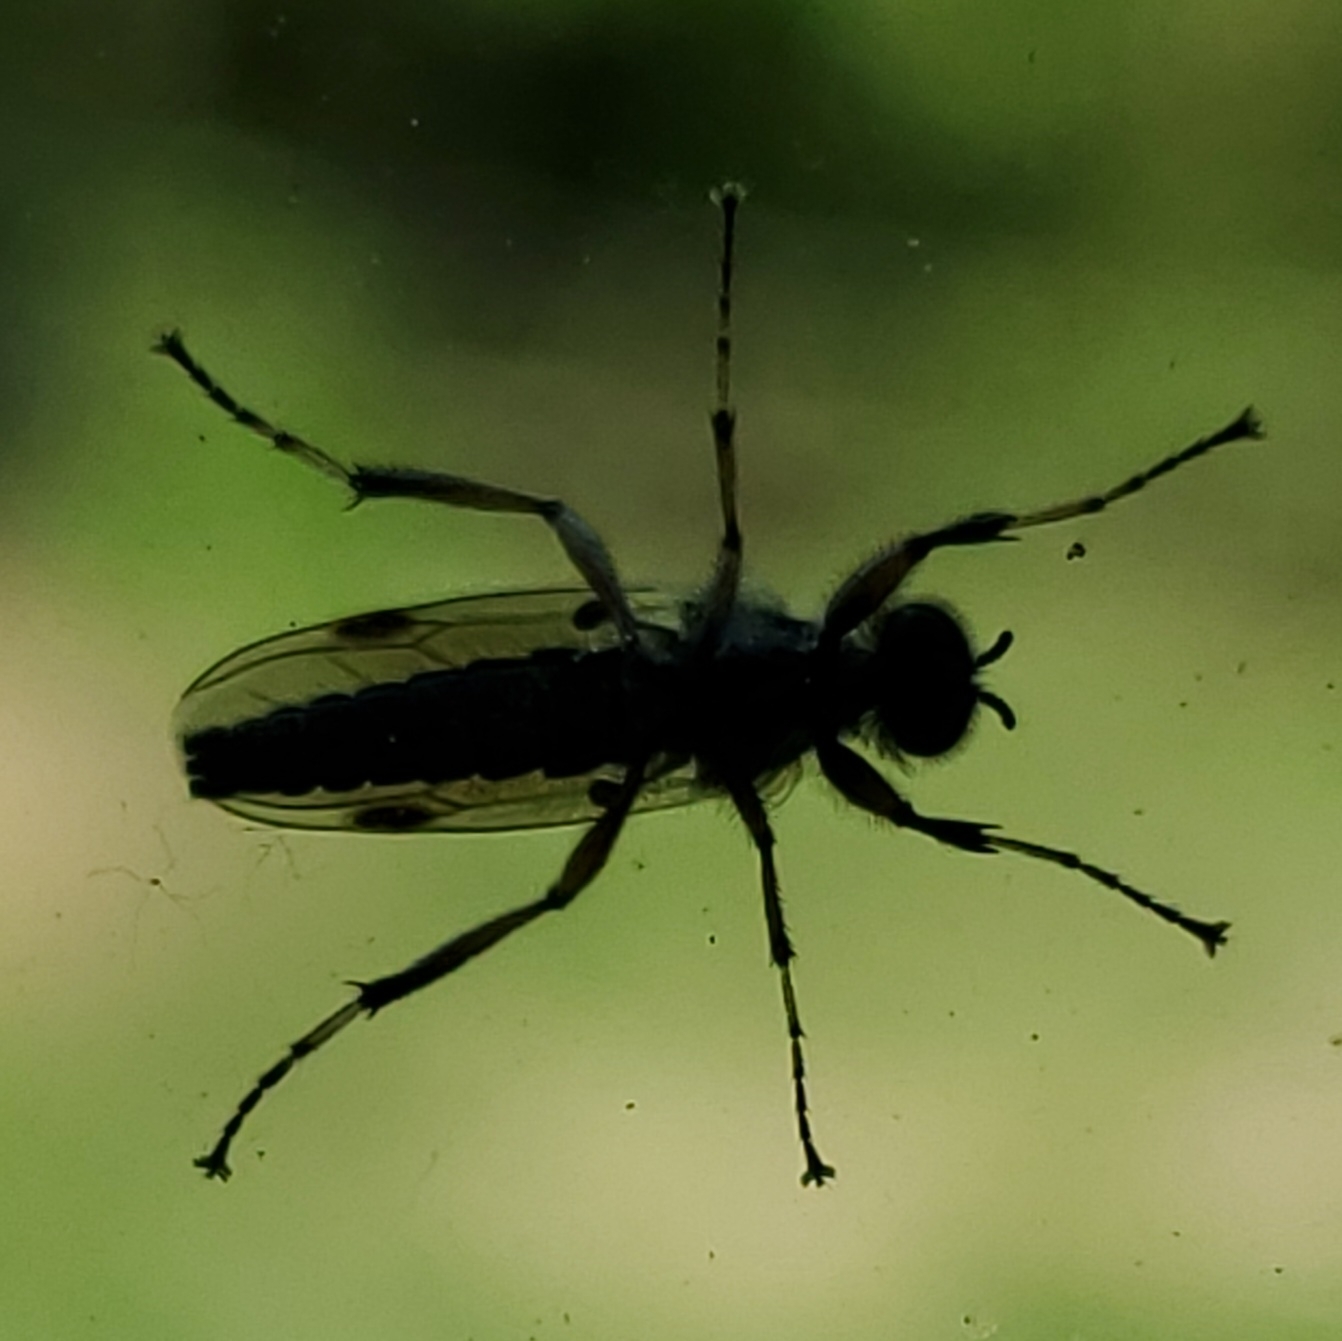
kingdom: Animalia
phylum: Arthropoda
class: Insecta
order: Diptera
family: Bibionidae
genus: Bibio
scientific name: Bibio articulatus
